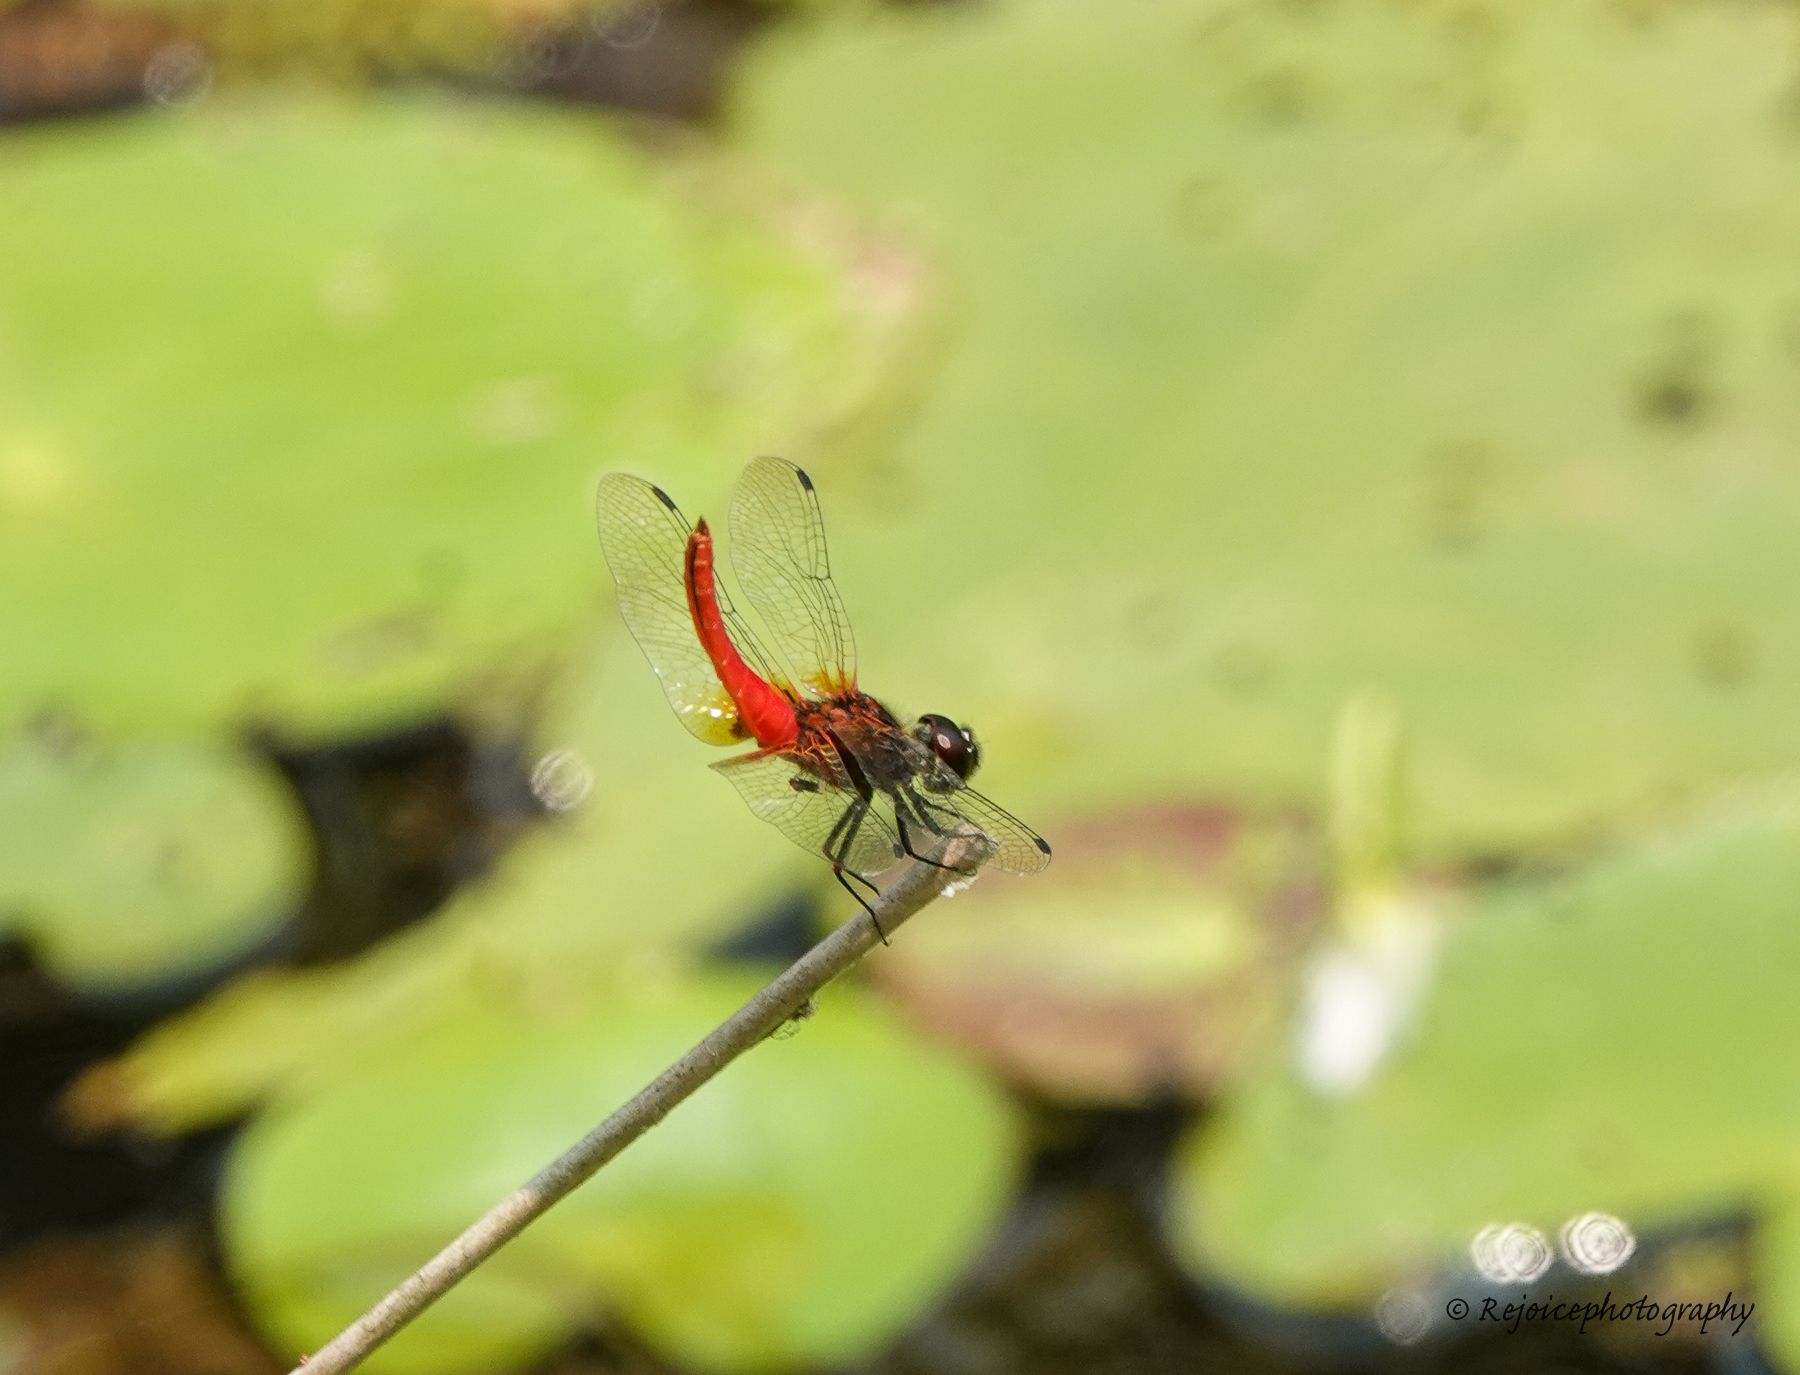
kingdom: Animalia
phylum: Arthropoda
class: Insecta
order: Odonata
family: Libellulidae
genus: Aethriamanta
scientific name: Aethriamanta brevipennis
